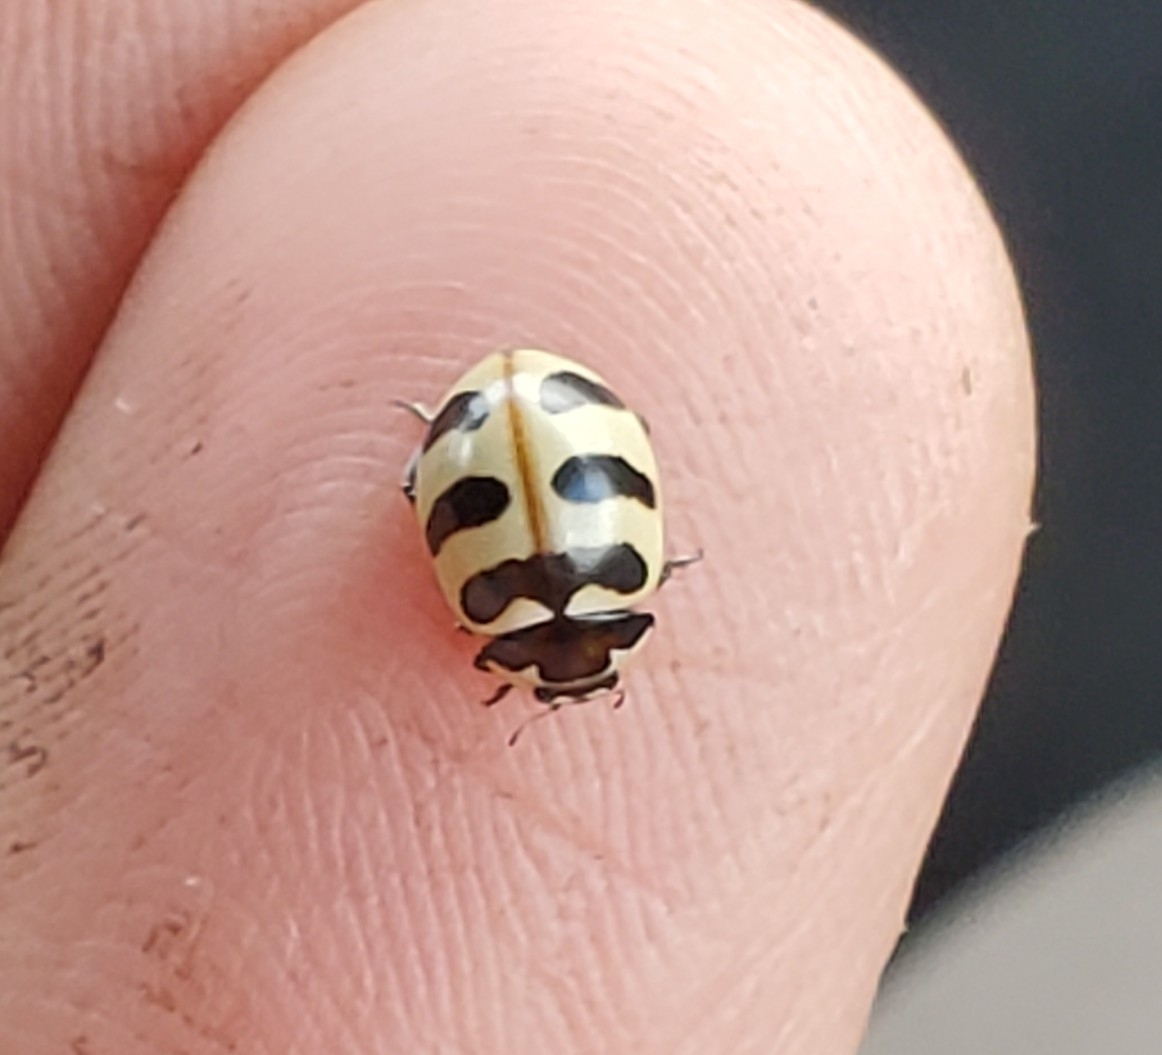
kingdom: Animalia
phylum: Arthropoda
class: Insecta
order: Coleoptera
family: Coccinellidae
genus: Coccinella
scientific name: Coccinella trifasciata
